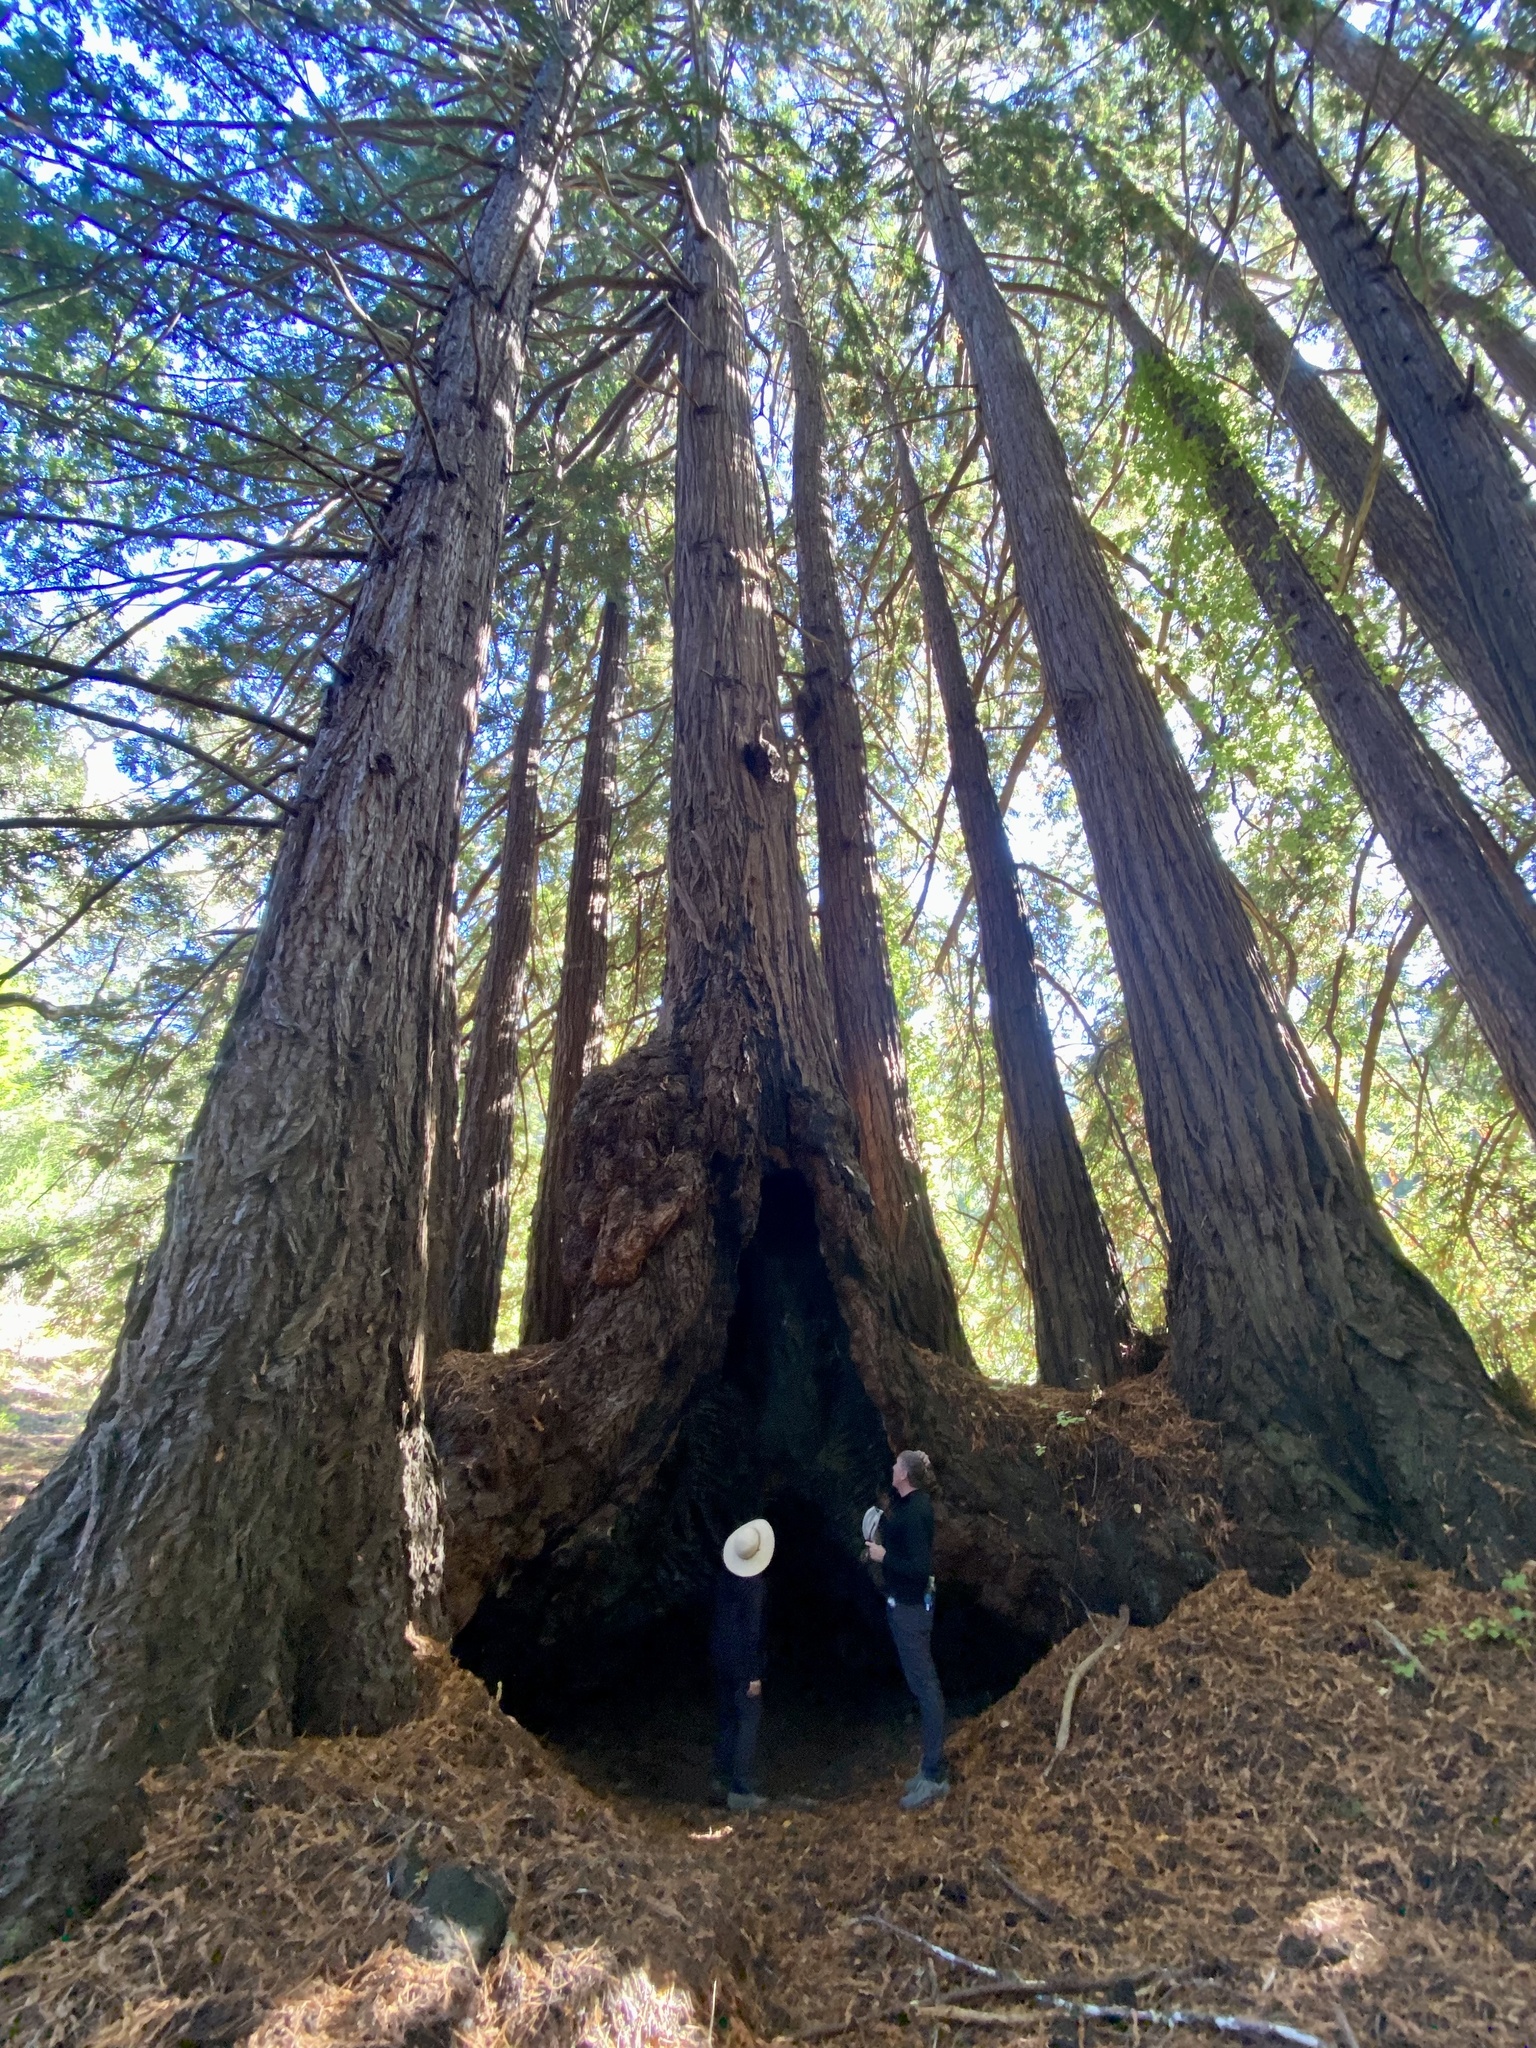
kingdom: Plantae
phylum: Tracheophyta
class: Pinopsida
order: Pinales
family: Cupressaceae
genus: Sequoia
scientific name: Sequoia sempervirens
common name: Coast redwood
